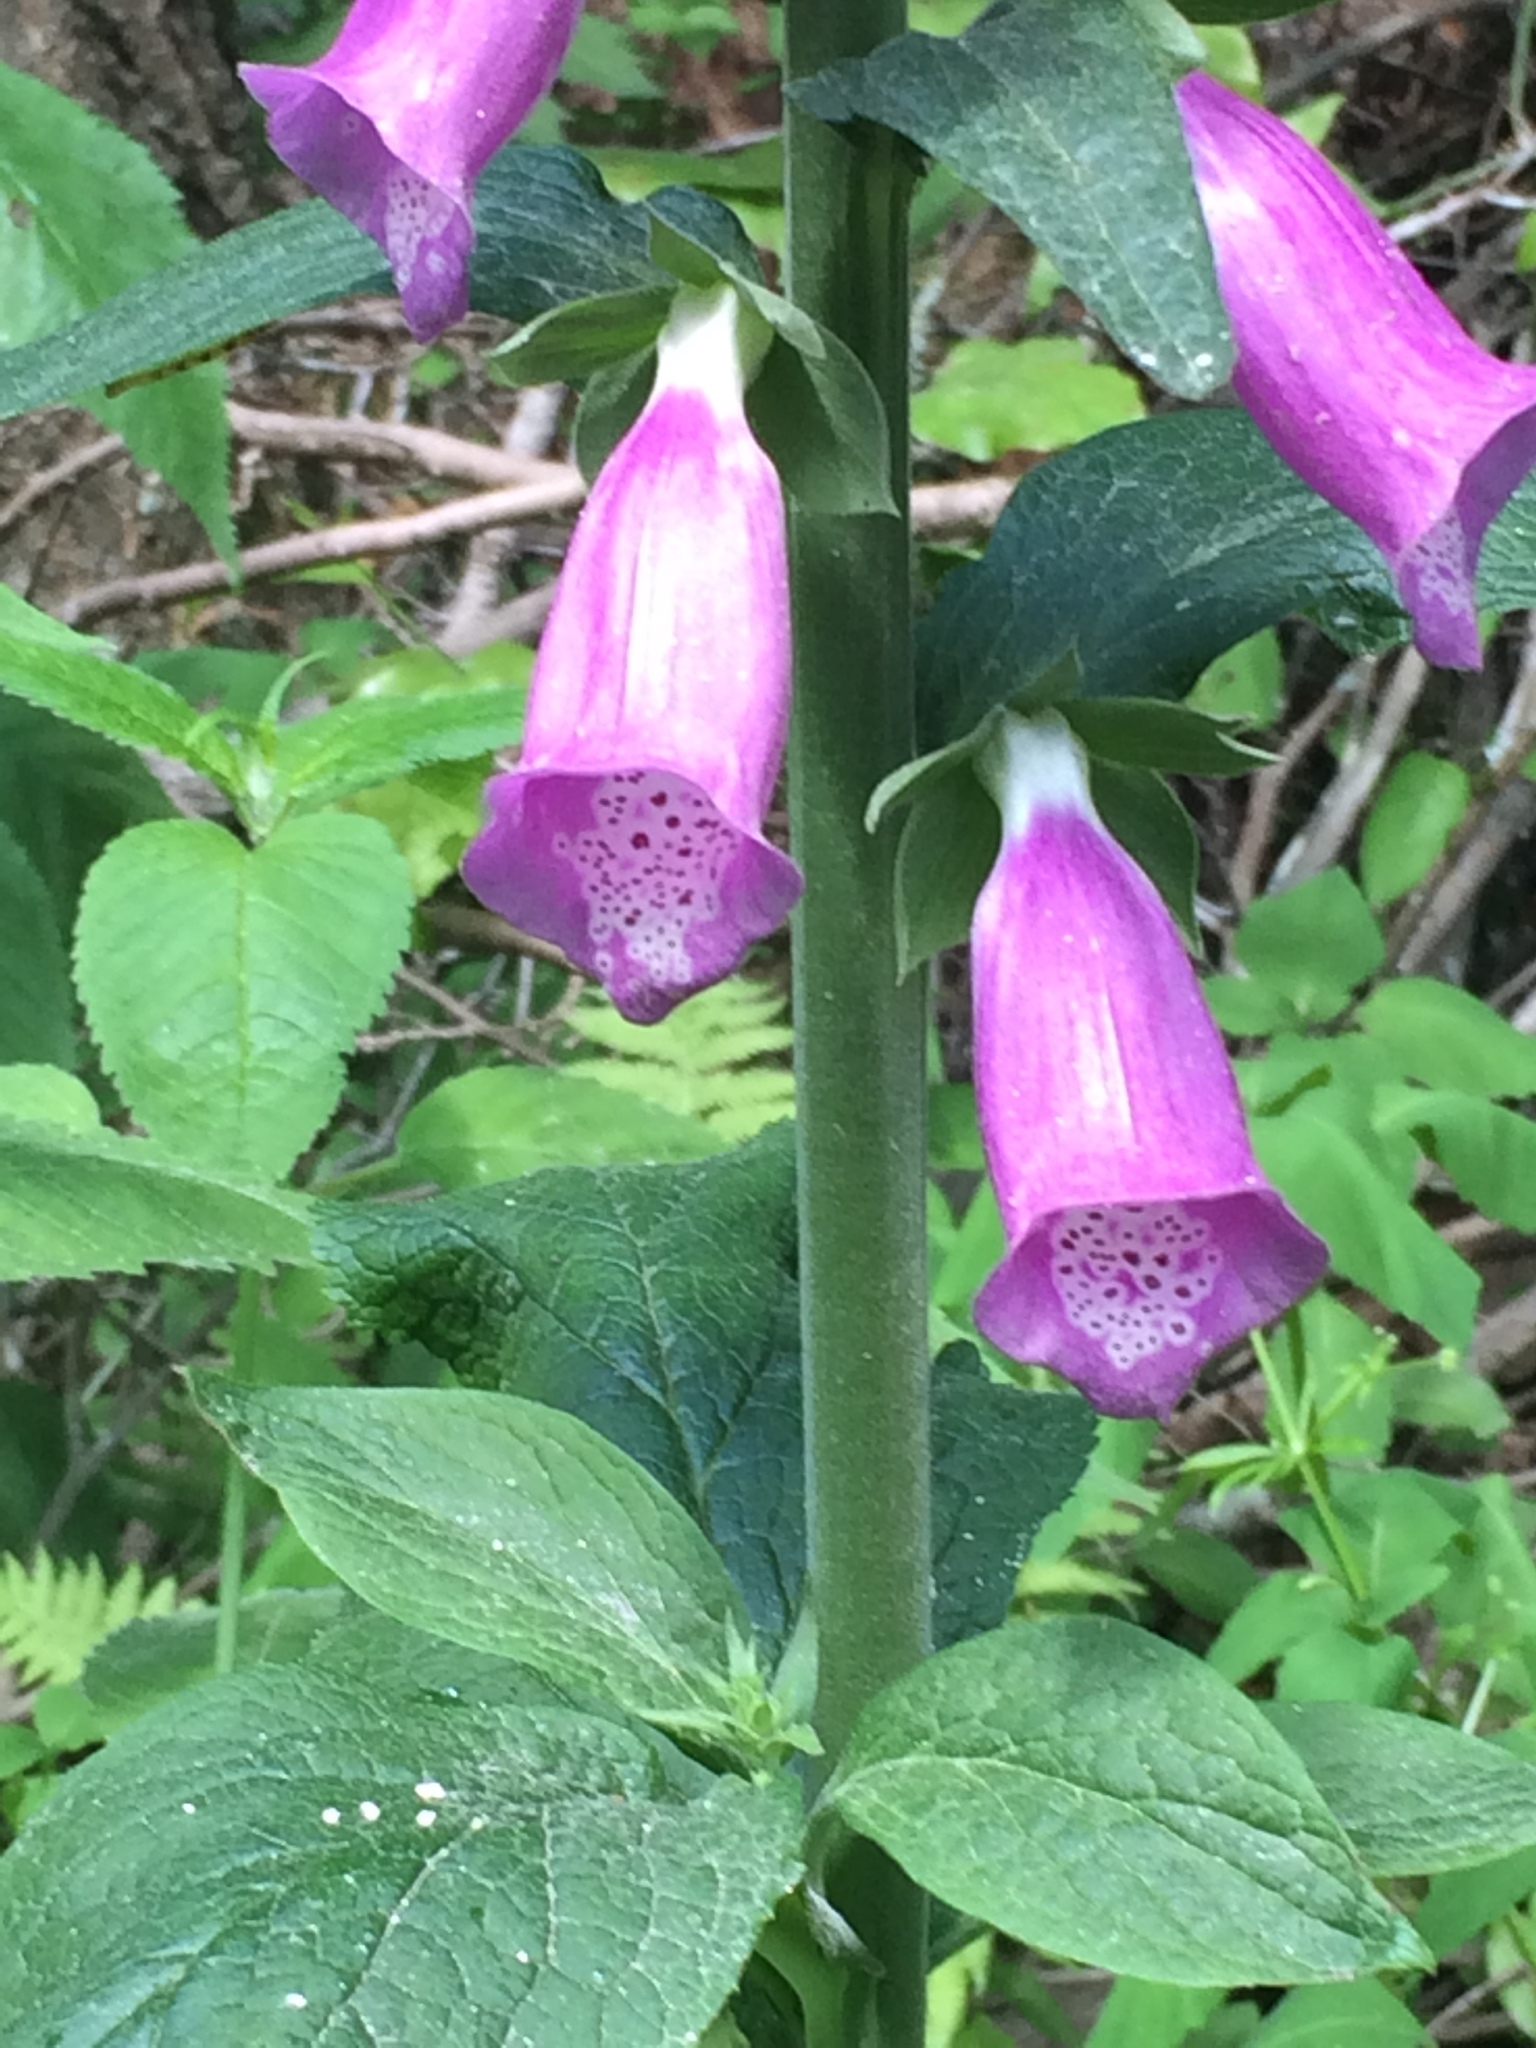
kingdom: Plantae
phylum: Tracheophyta
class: Magnoliopsida
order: Lamiales
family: Plantaginaceae
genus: Digitalis
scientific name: Digitalis purpurea
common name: Foxglove
